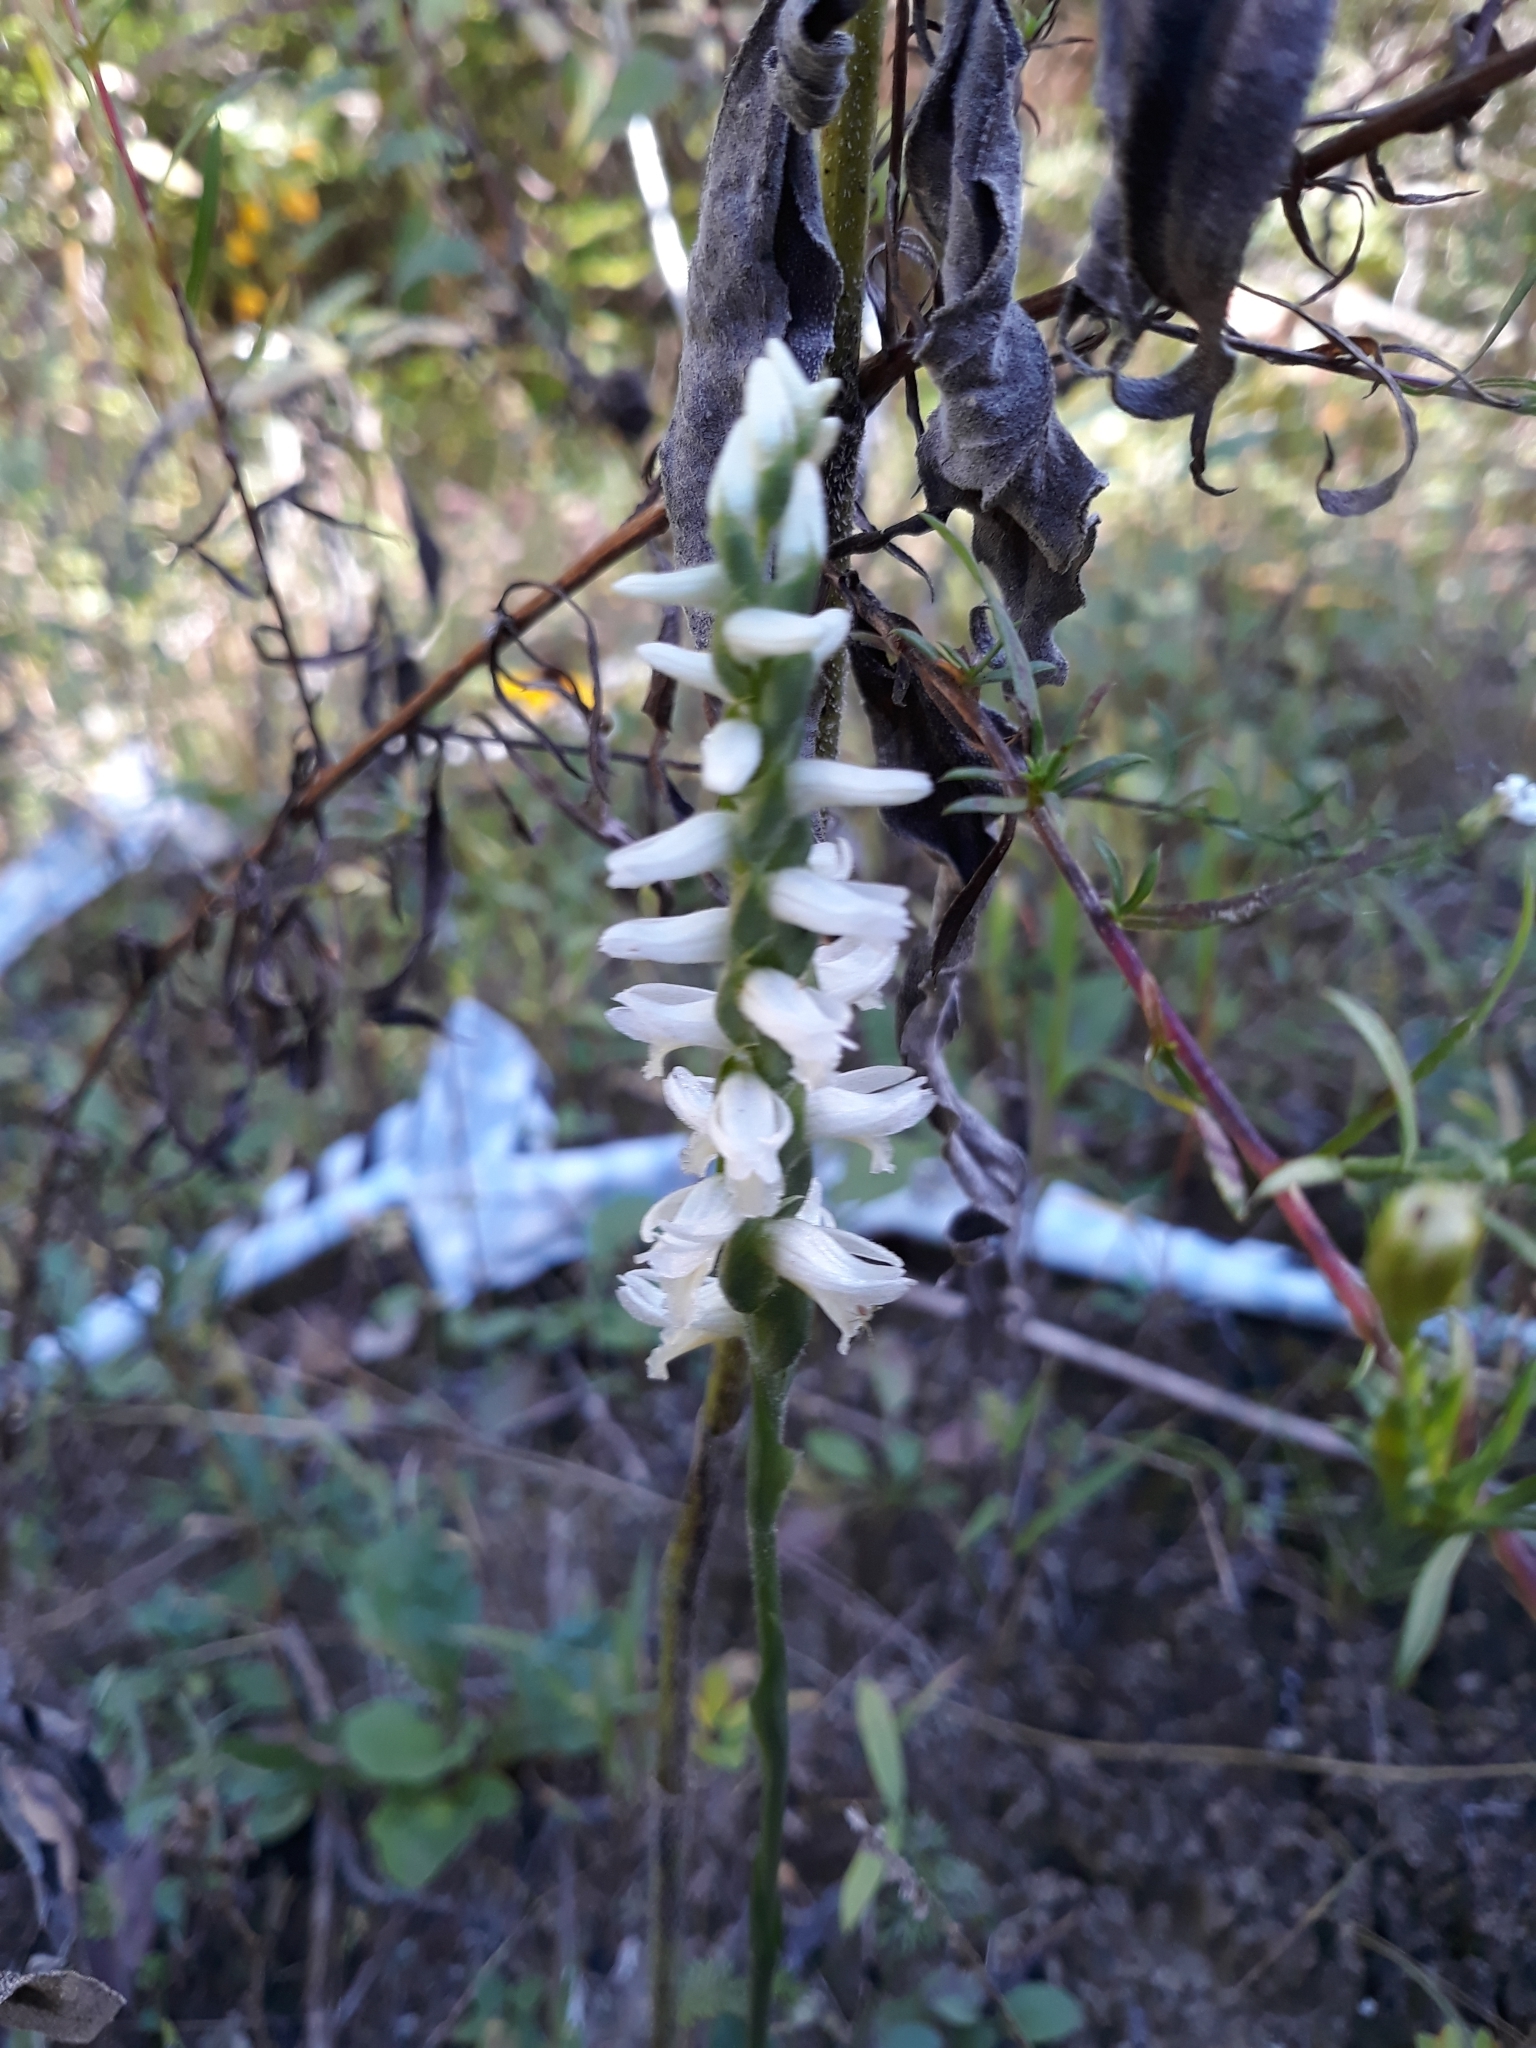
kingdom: Plantae
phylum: Tracheophyta
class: Liliopsida
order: Asparagales
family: Orchidaceae
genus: Spiranthes
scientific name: Spiranthes magnicamporum
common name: Great plains ladies'-tresses
